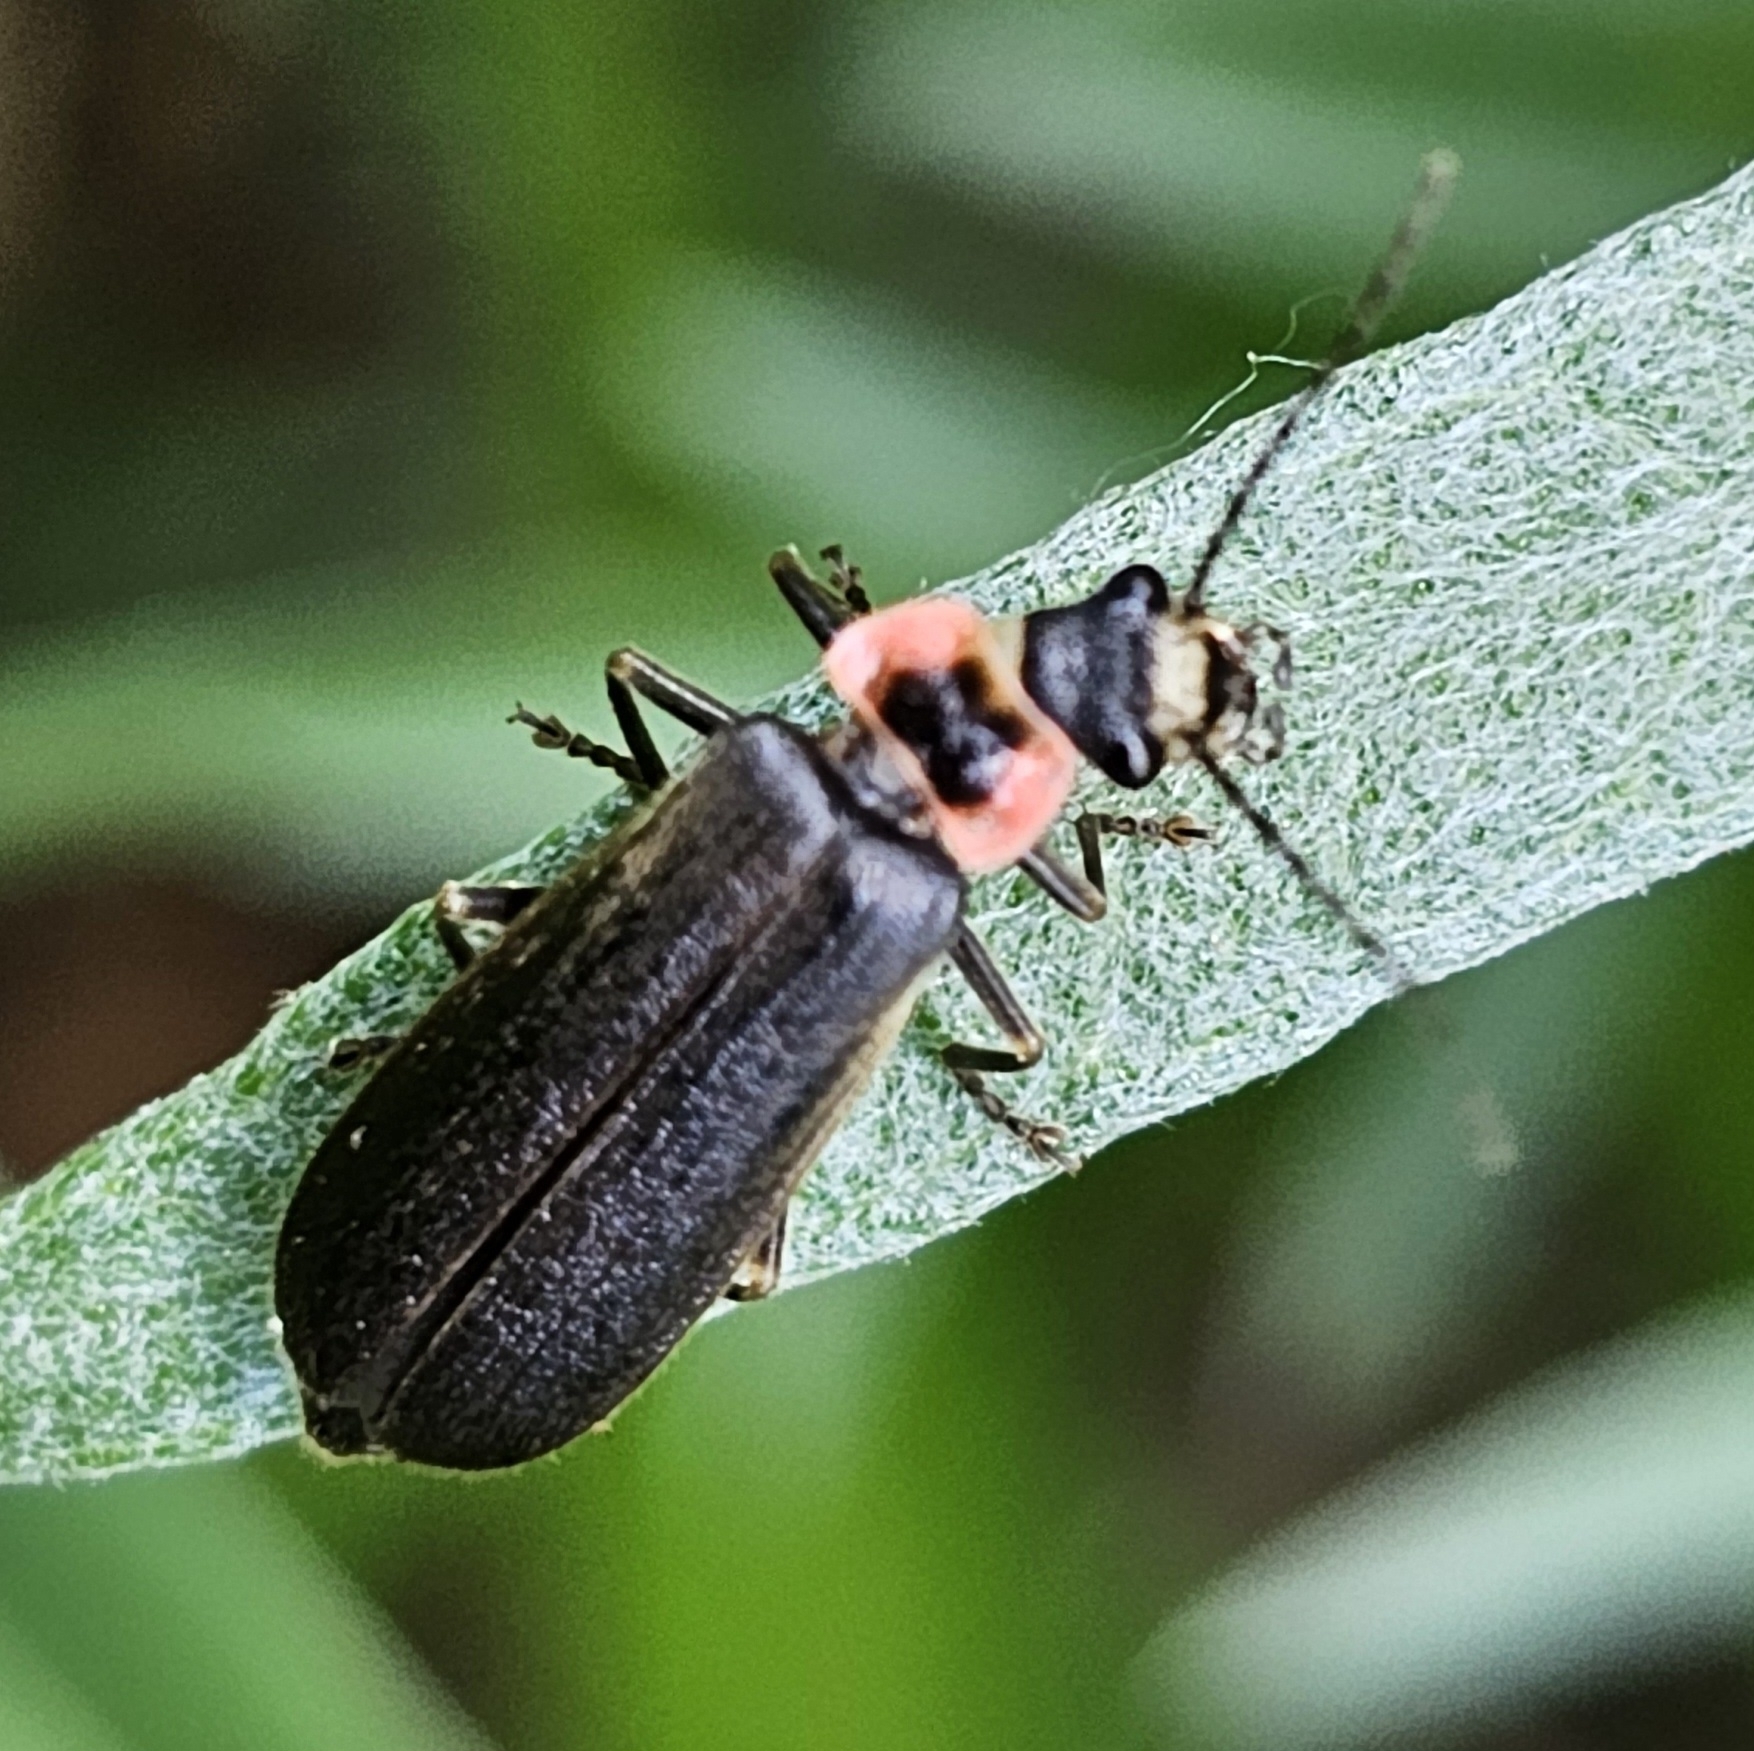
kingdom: Animalia
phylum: Arthropoda
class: Insecta
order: Coleoptera
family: Cantharidae
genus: Podabrus
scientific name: Podabrus brevicollis
